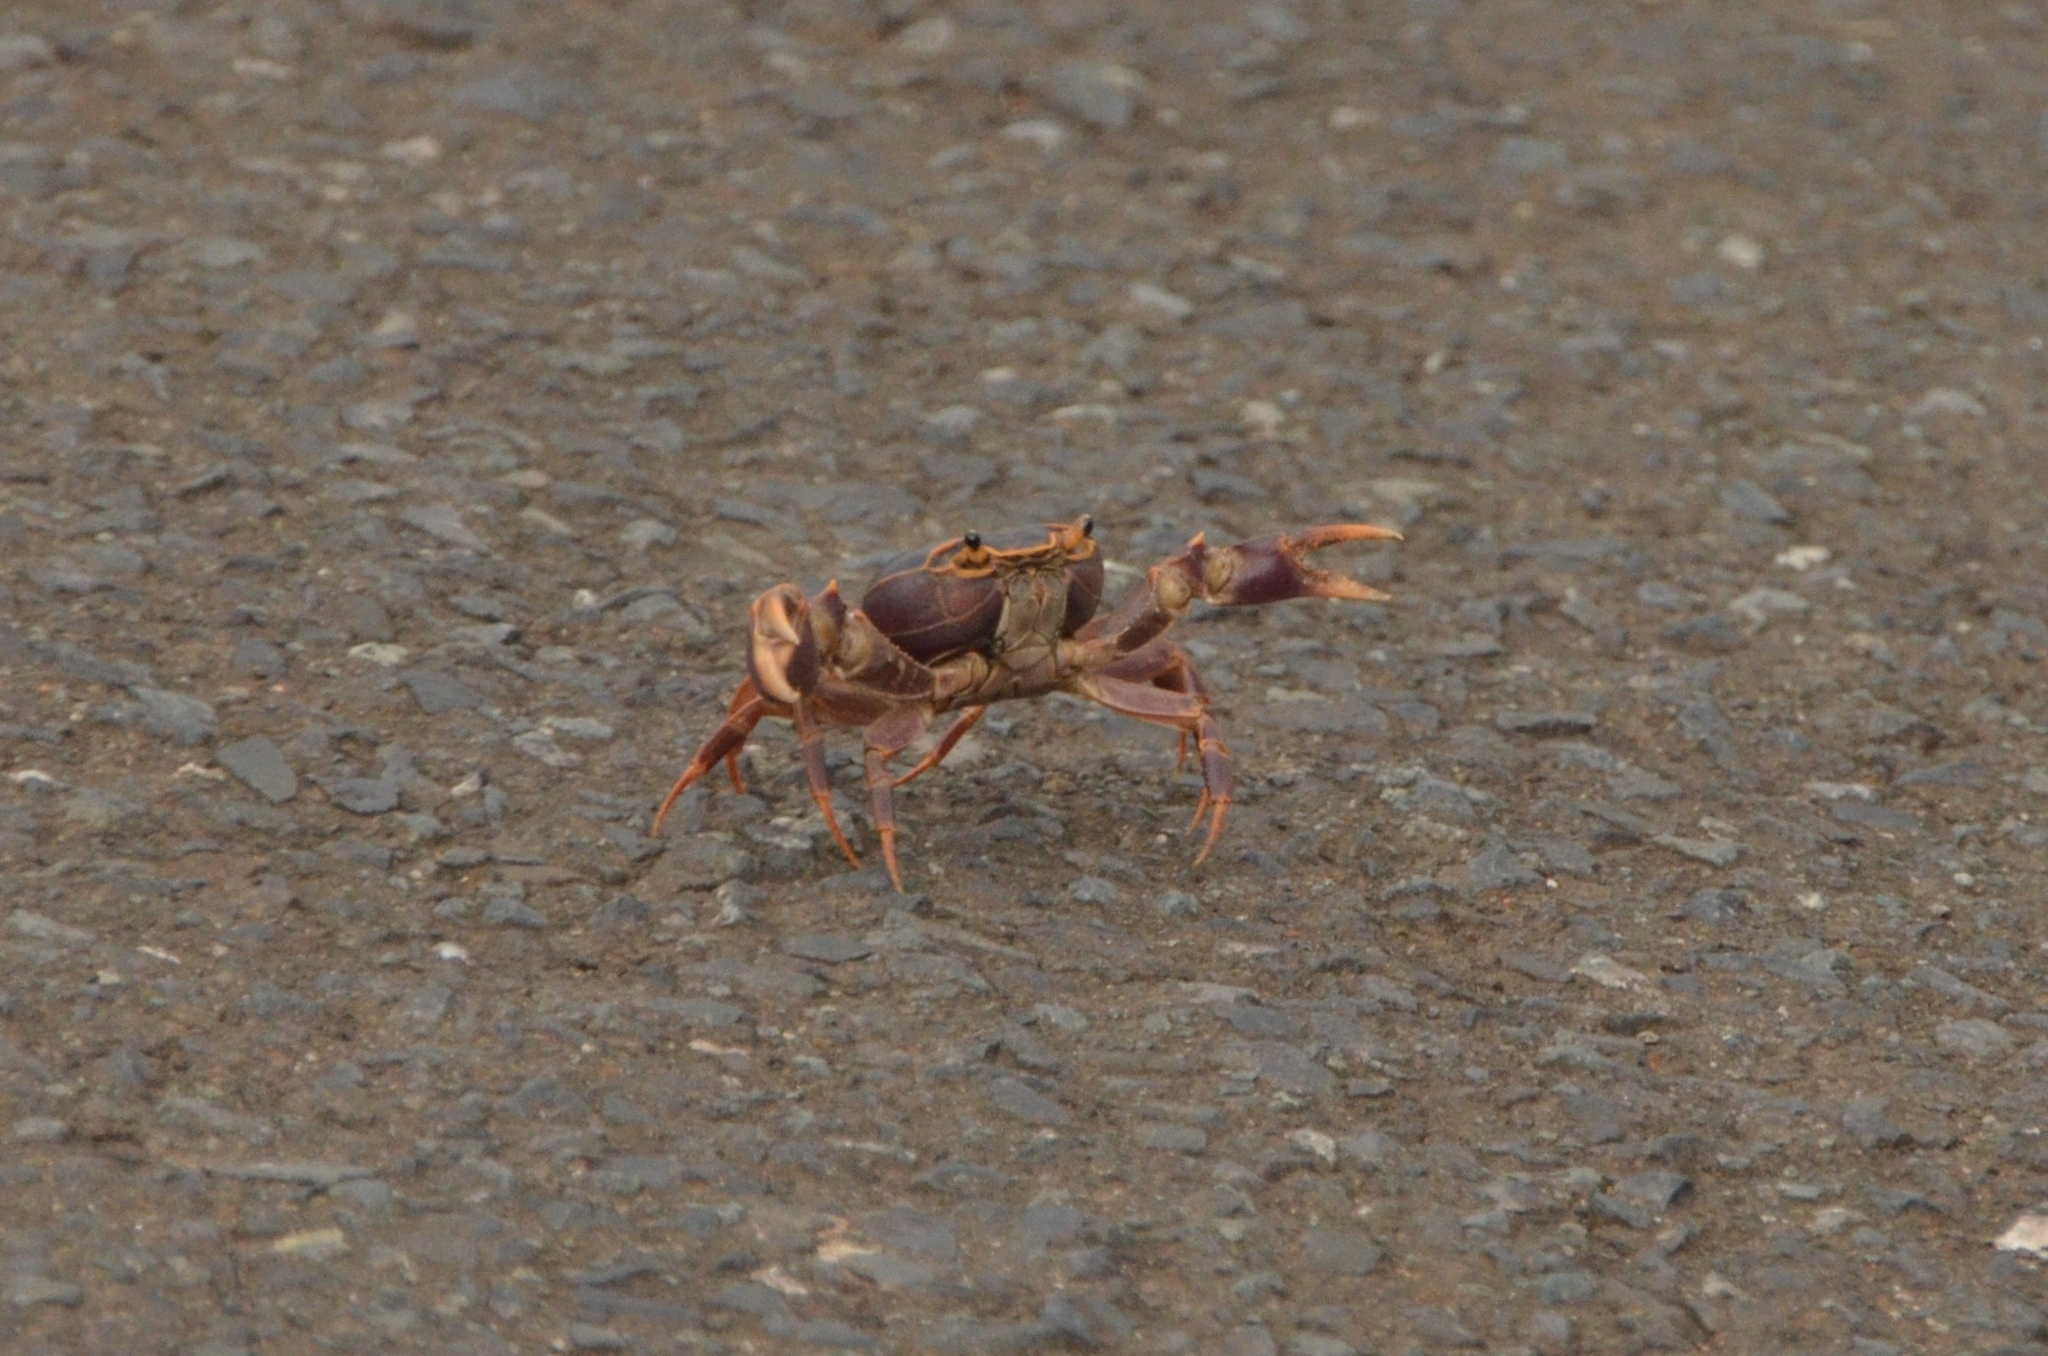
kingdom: Animalia
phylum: Arthropoda
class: Malacostraca
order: Decapoda
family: Potamonautidae
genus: Potamonautes
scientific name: Potamonautes isimangaliso
